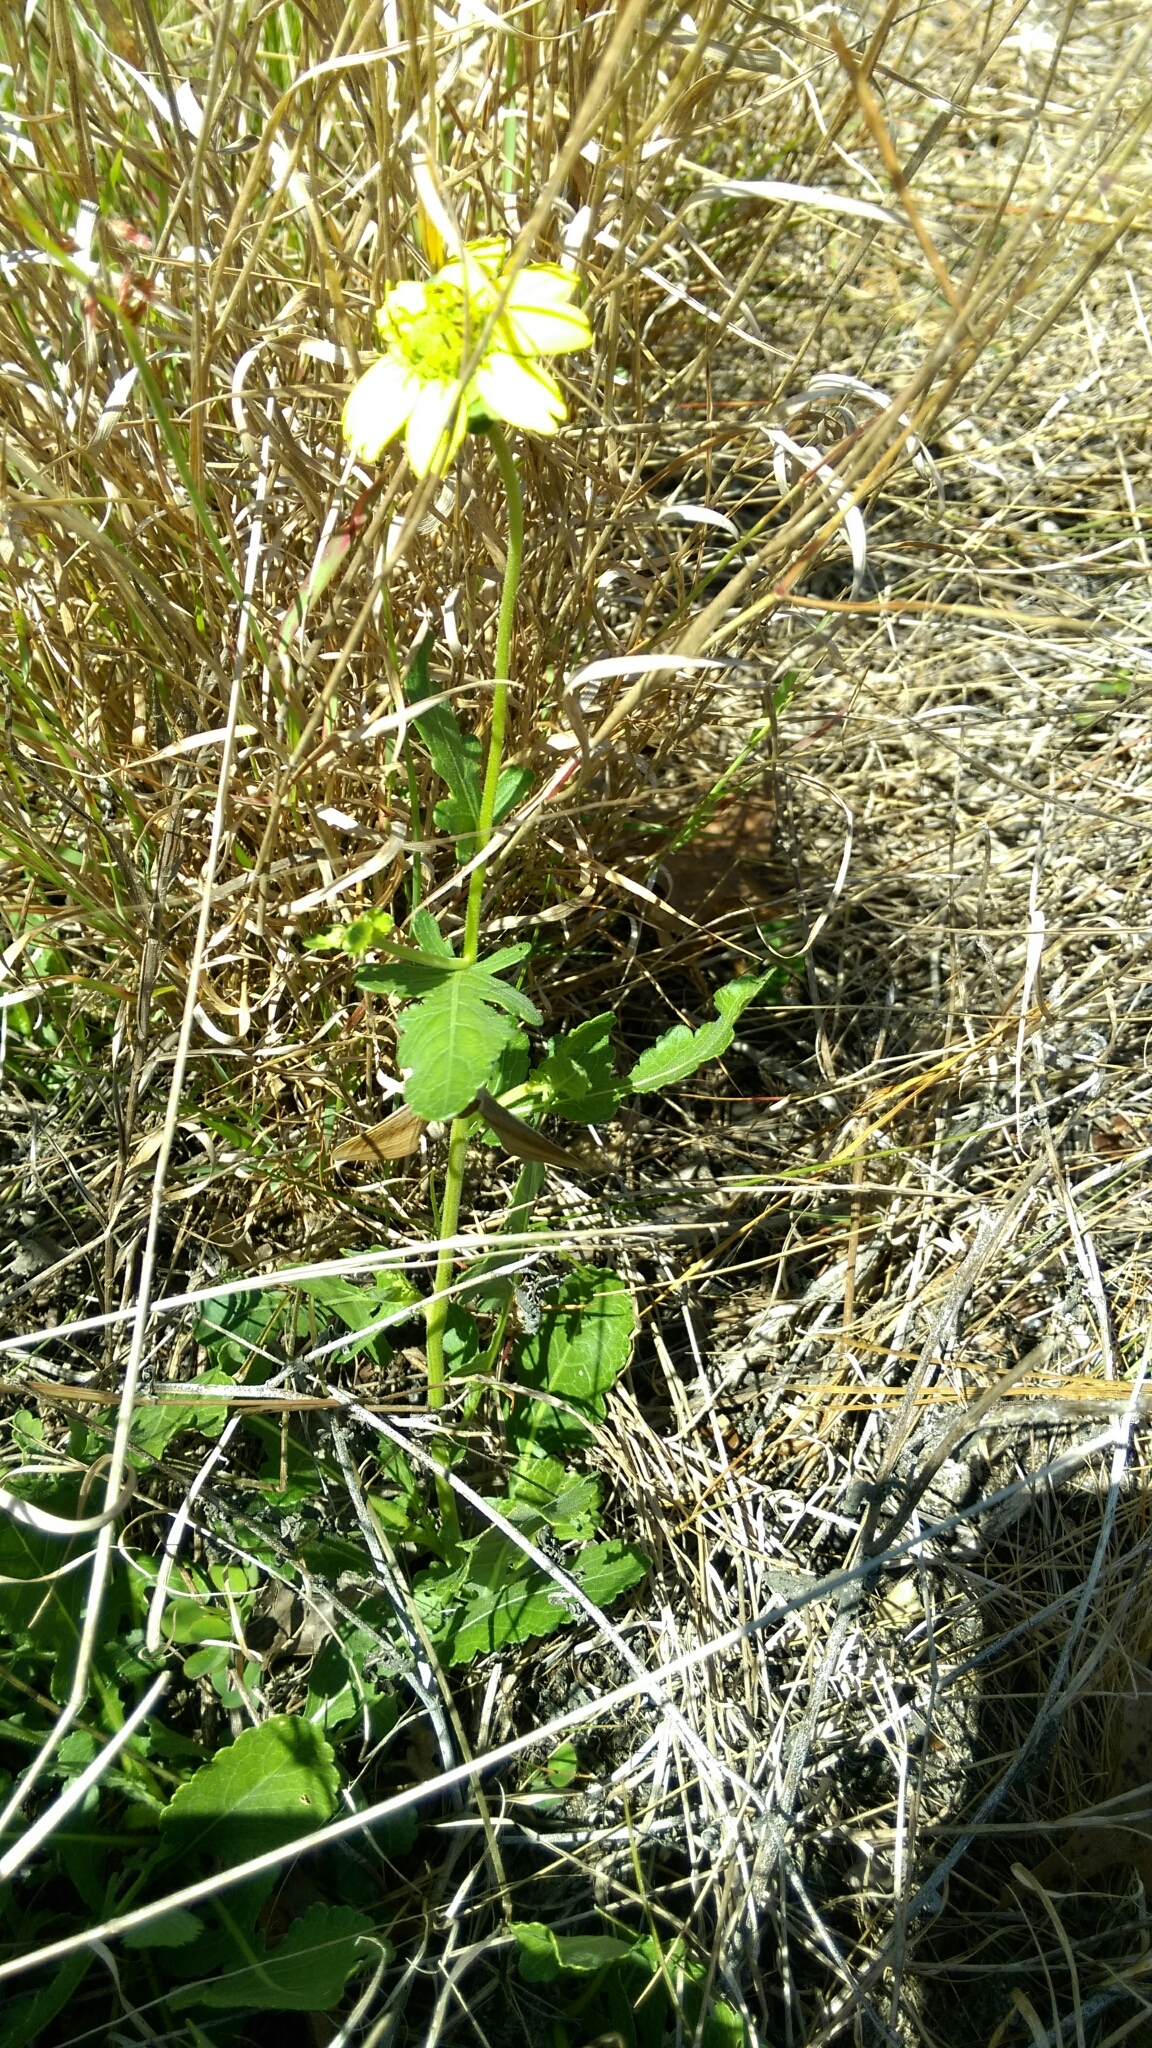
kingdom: Plantae
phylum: Tracheophyta
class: Magnoliopsida
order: Asterales
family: Asteraceae
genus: Berlandiera
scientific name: Berlandiera subacaulis
